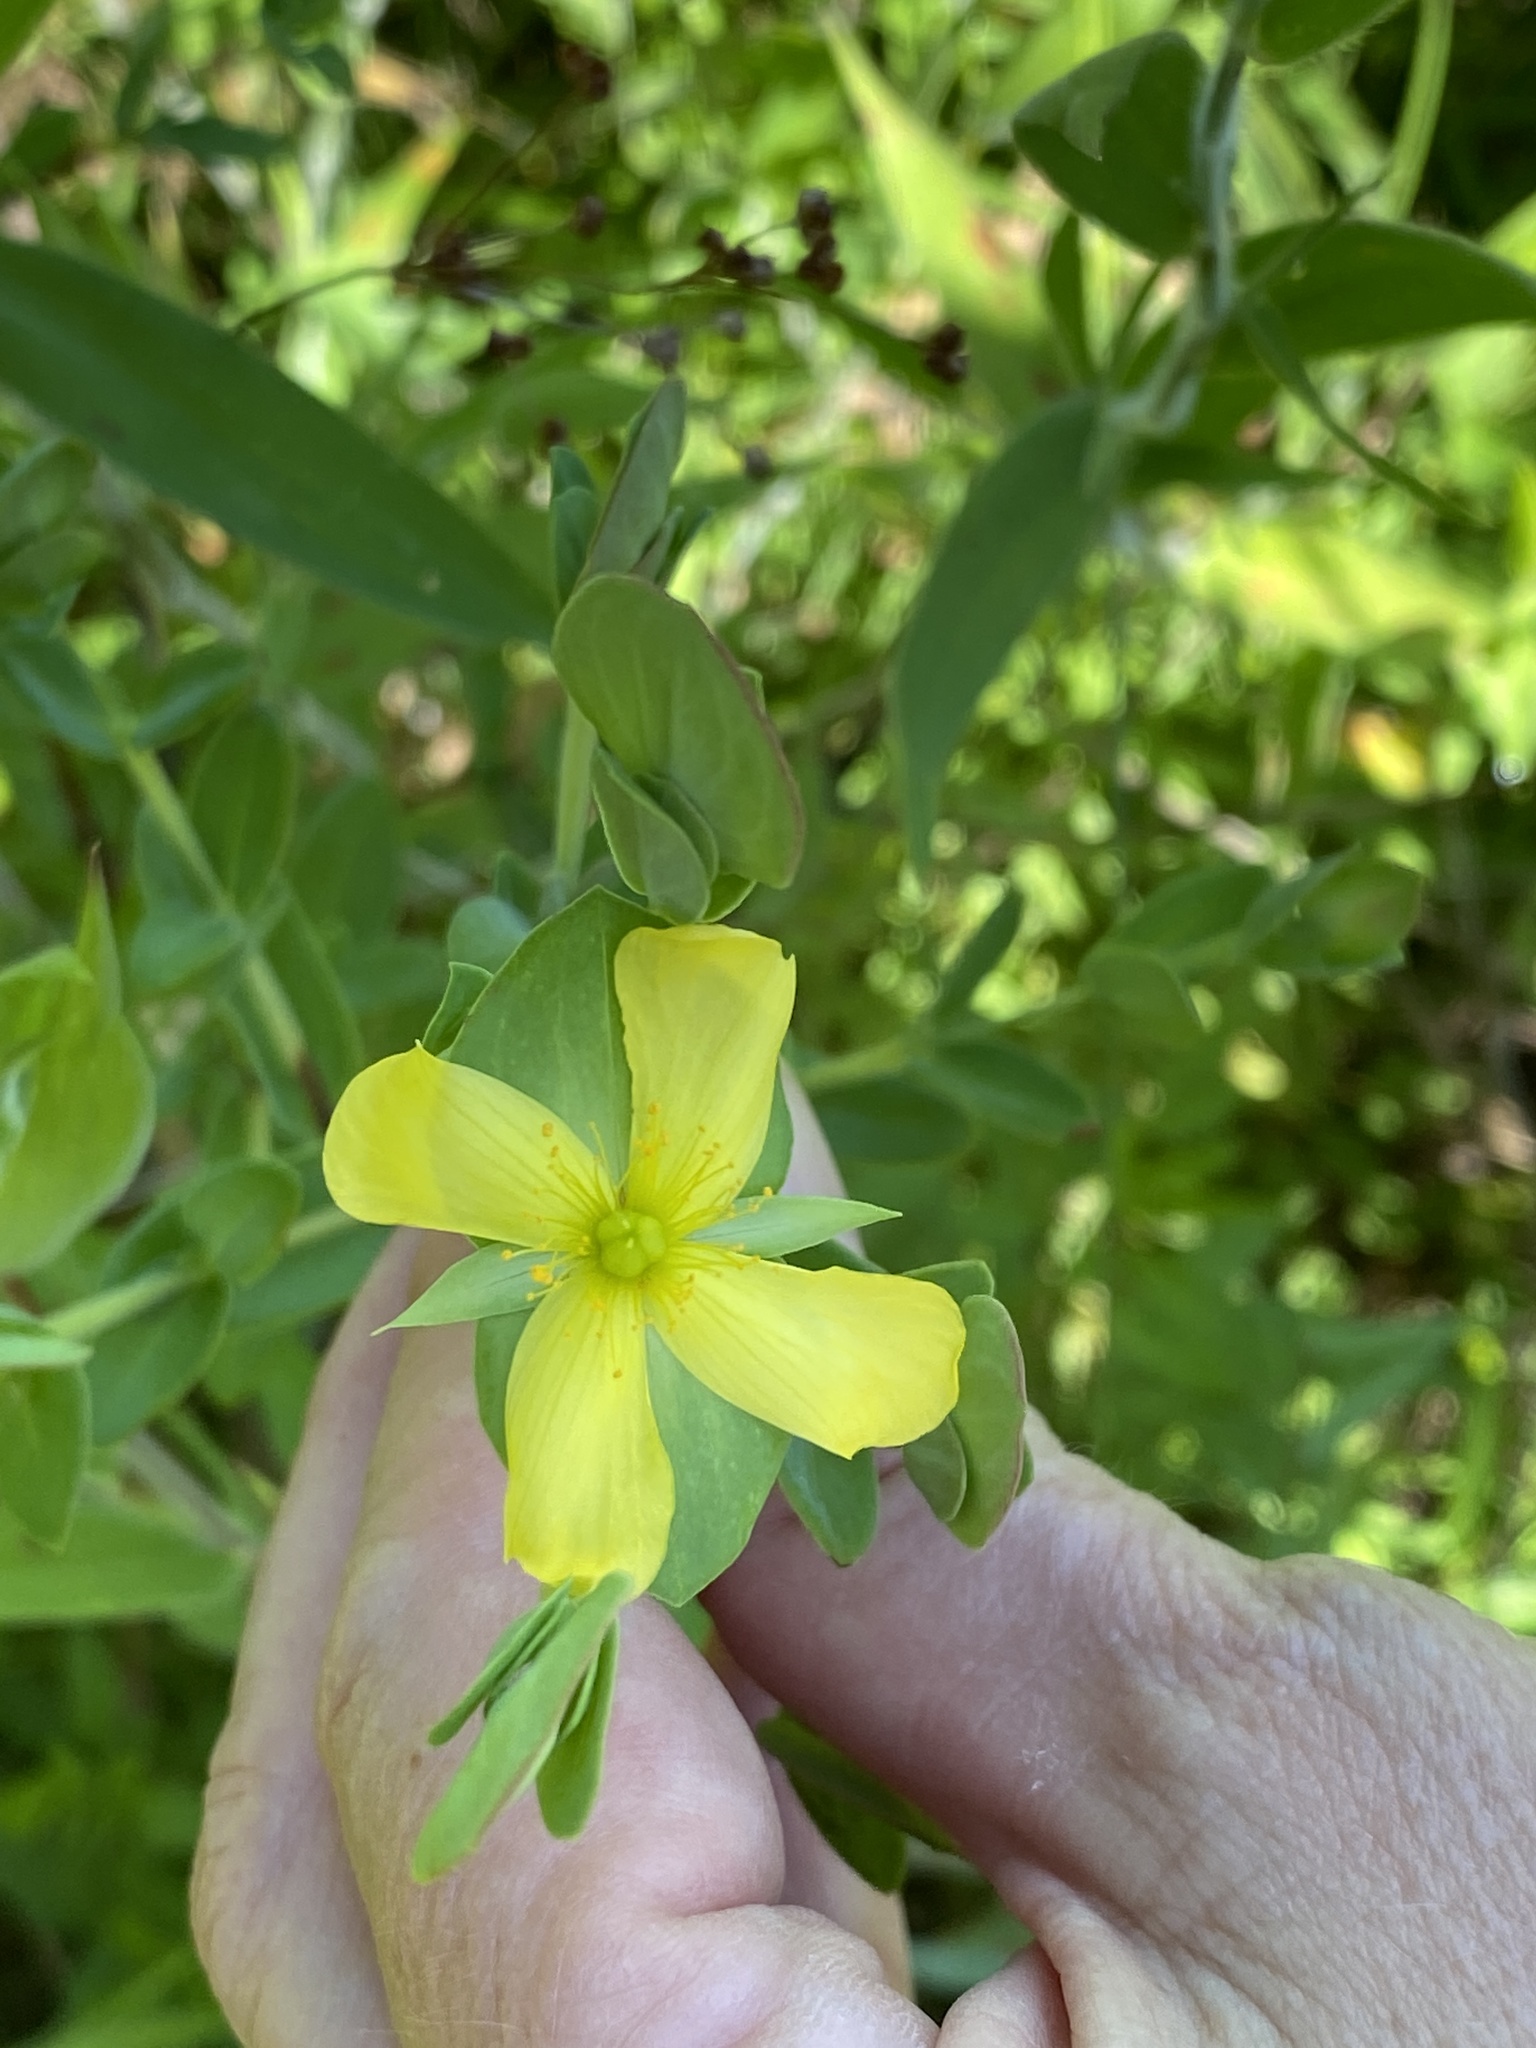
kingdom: Plantae
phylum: Tracheophyta
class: Magnoliopsida
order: Malpighiales
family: Hypericaceae
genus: Hypericum
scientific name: Hypericum crux-andreae
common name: St.-peter's-wort
